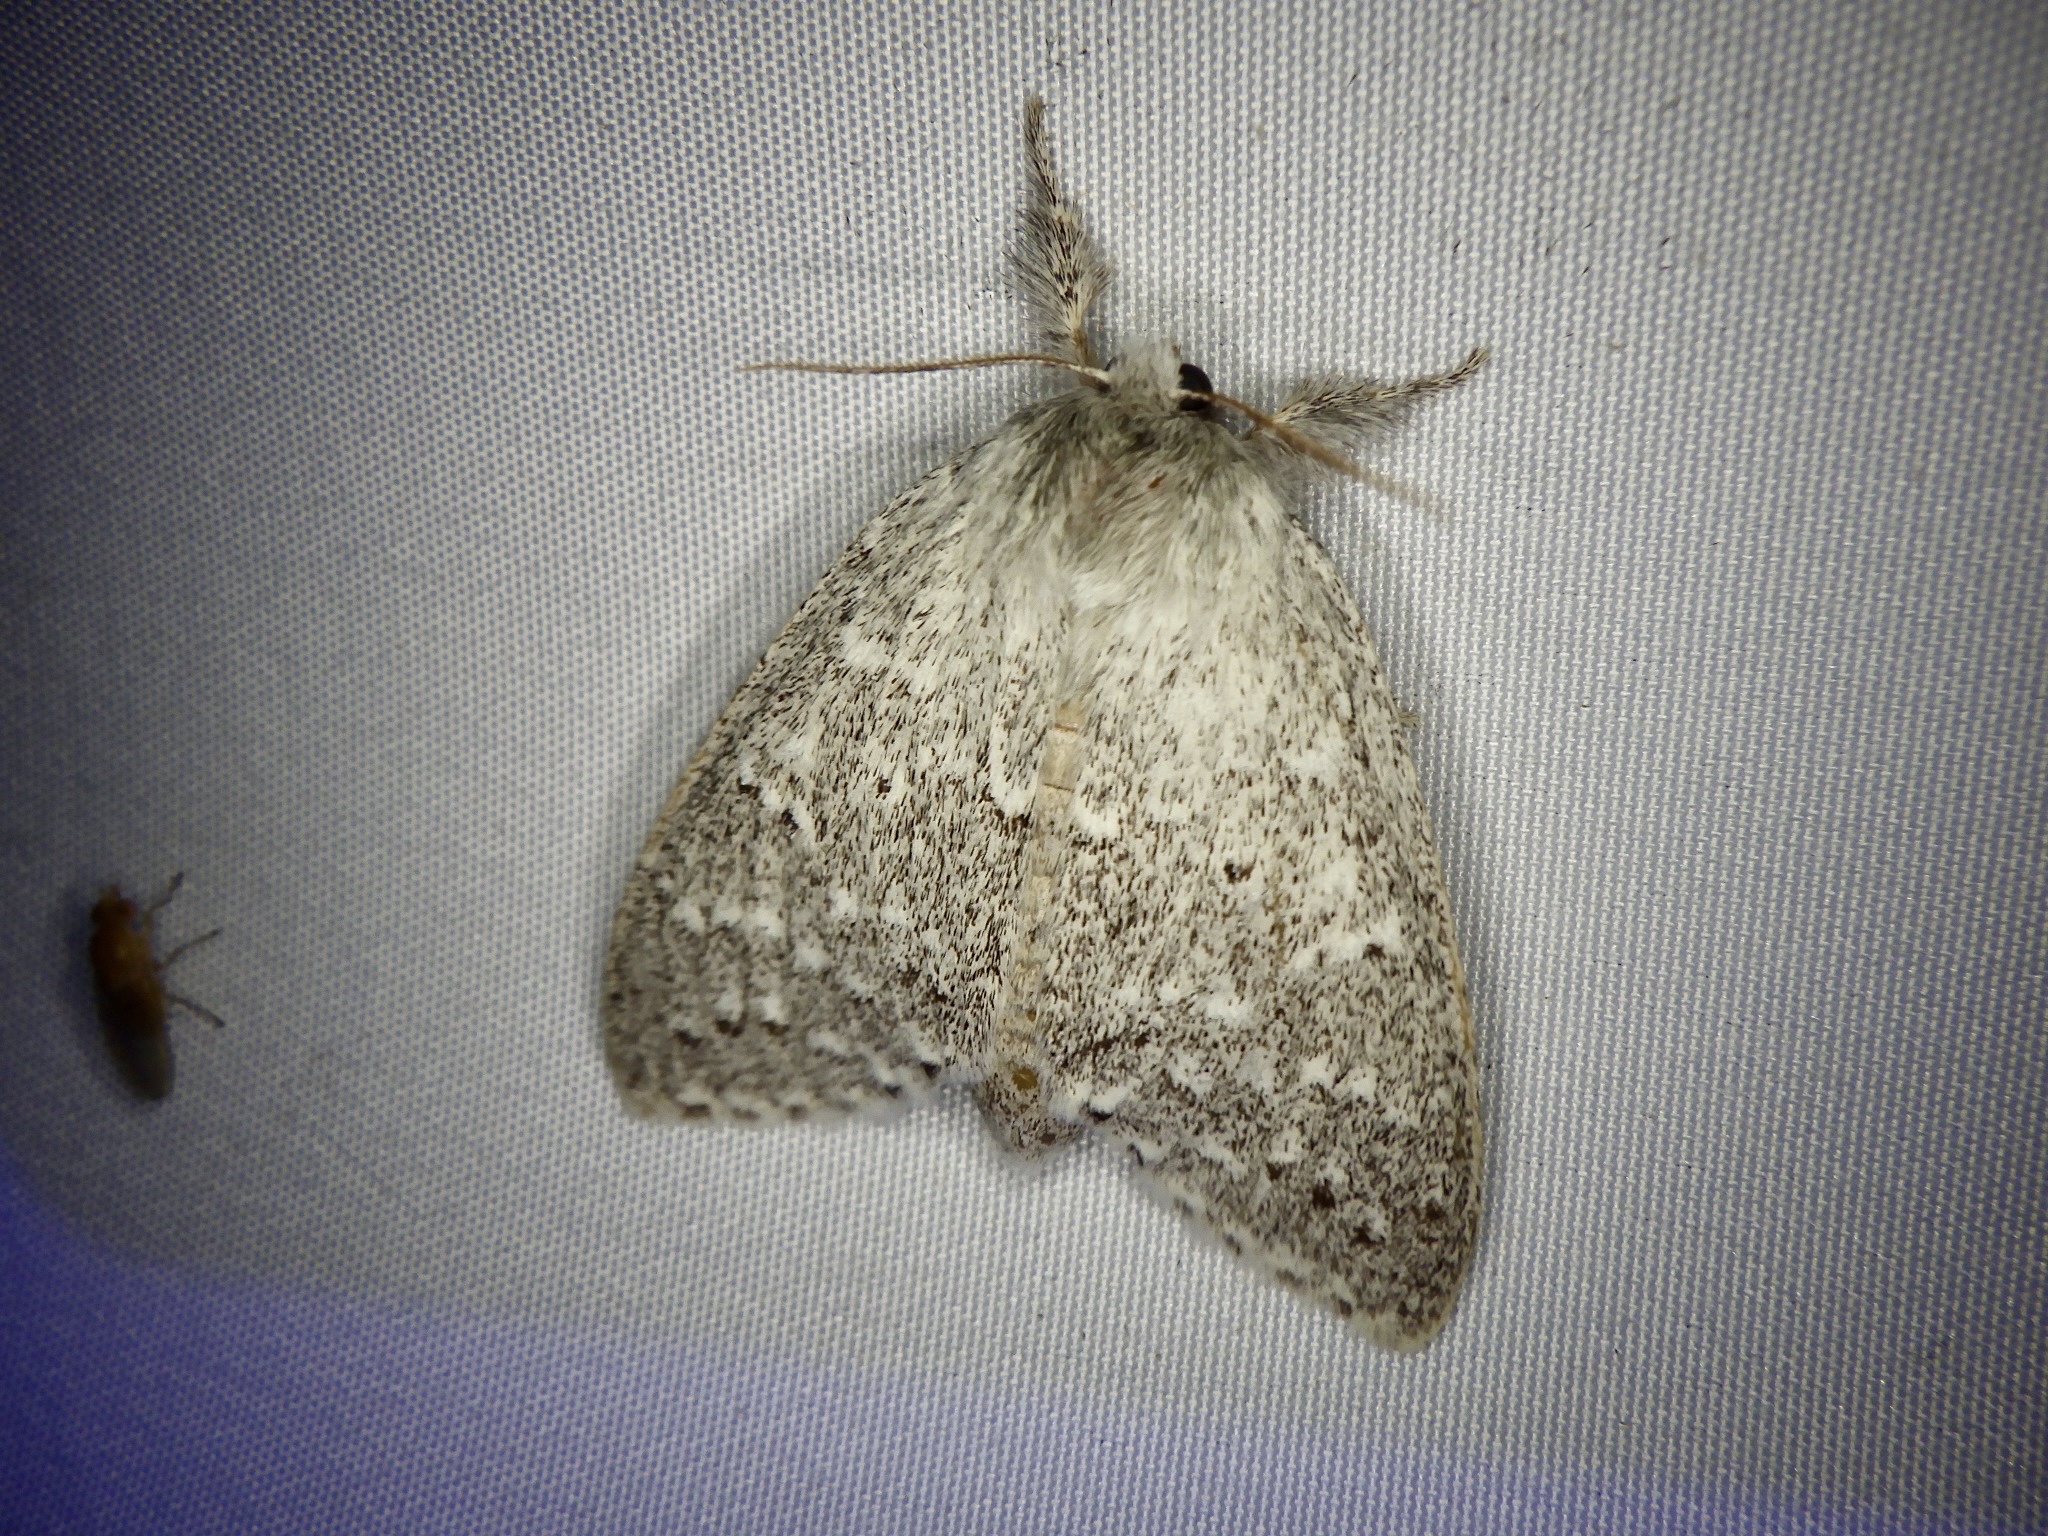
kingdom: Animalia
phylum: Arthropoda
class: Insecta
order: Lepidoptera
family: Notodontidae
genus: Cnethodonta
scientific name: Cnethodonta japonica
